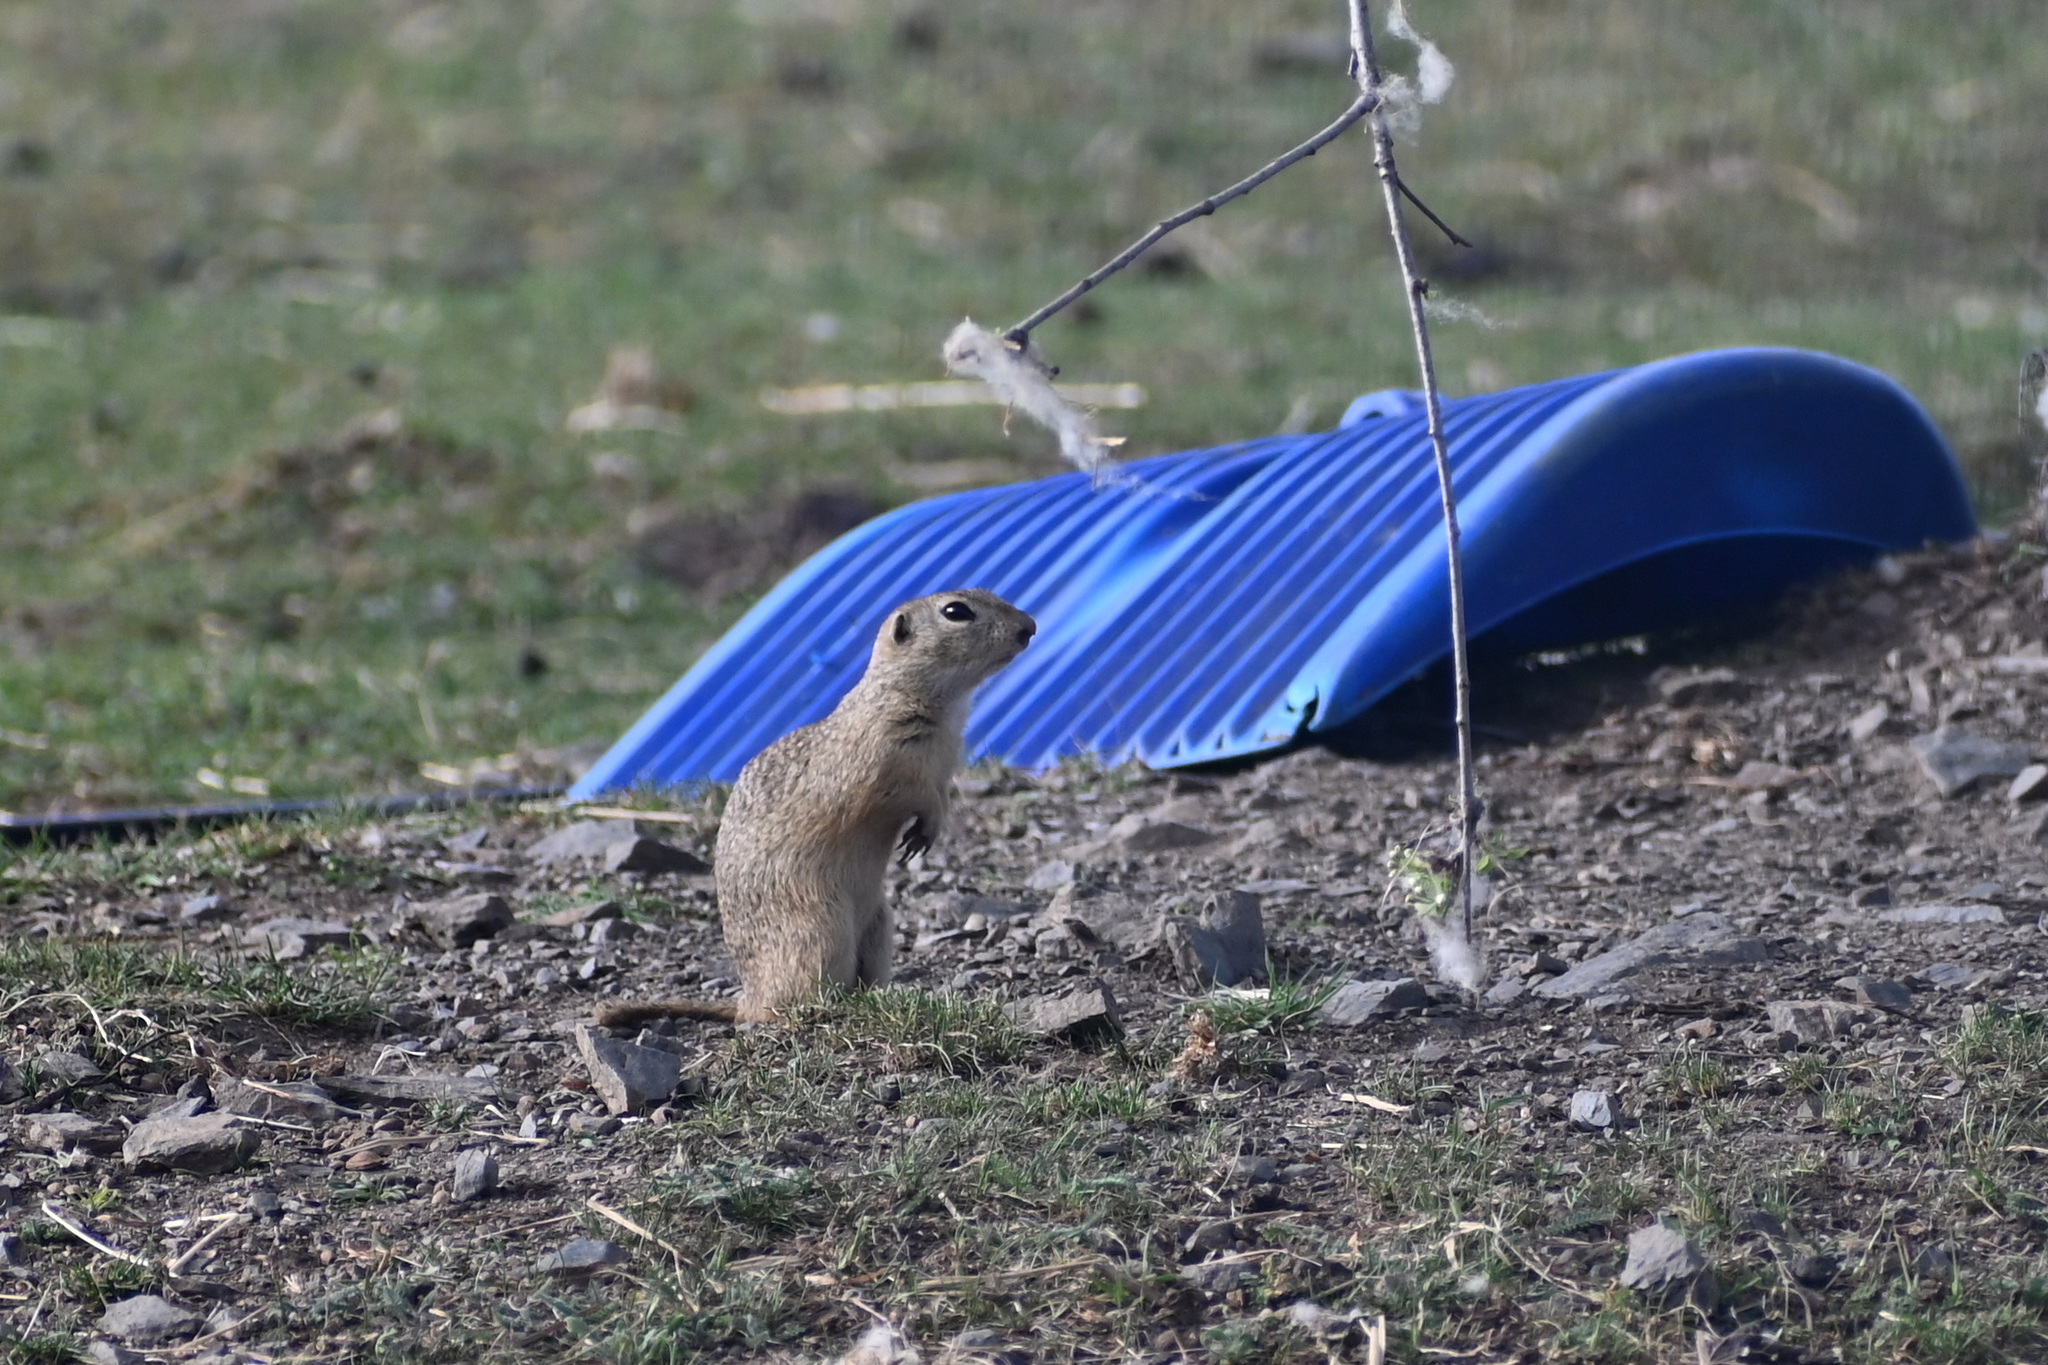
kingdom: Animalia
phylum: Chordata
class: Mammalia
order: Rodentia
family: Sciuridae
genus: Spermophilus
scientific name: Spermophilus citellus
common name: European ground squirrel
